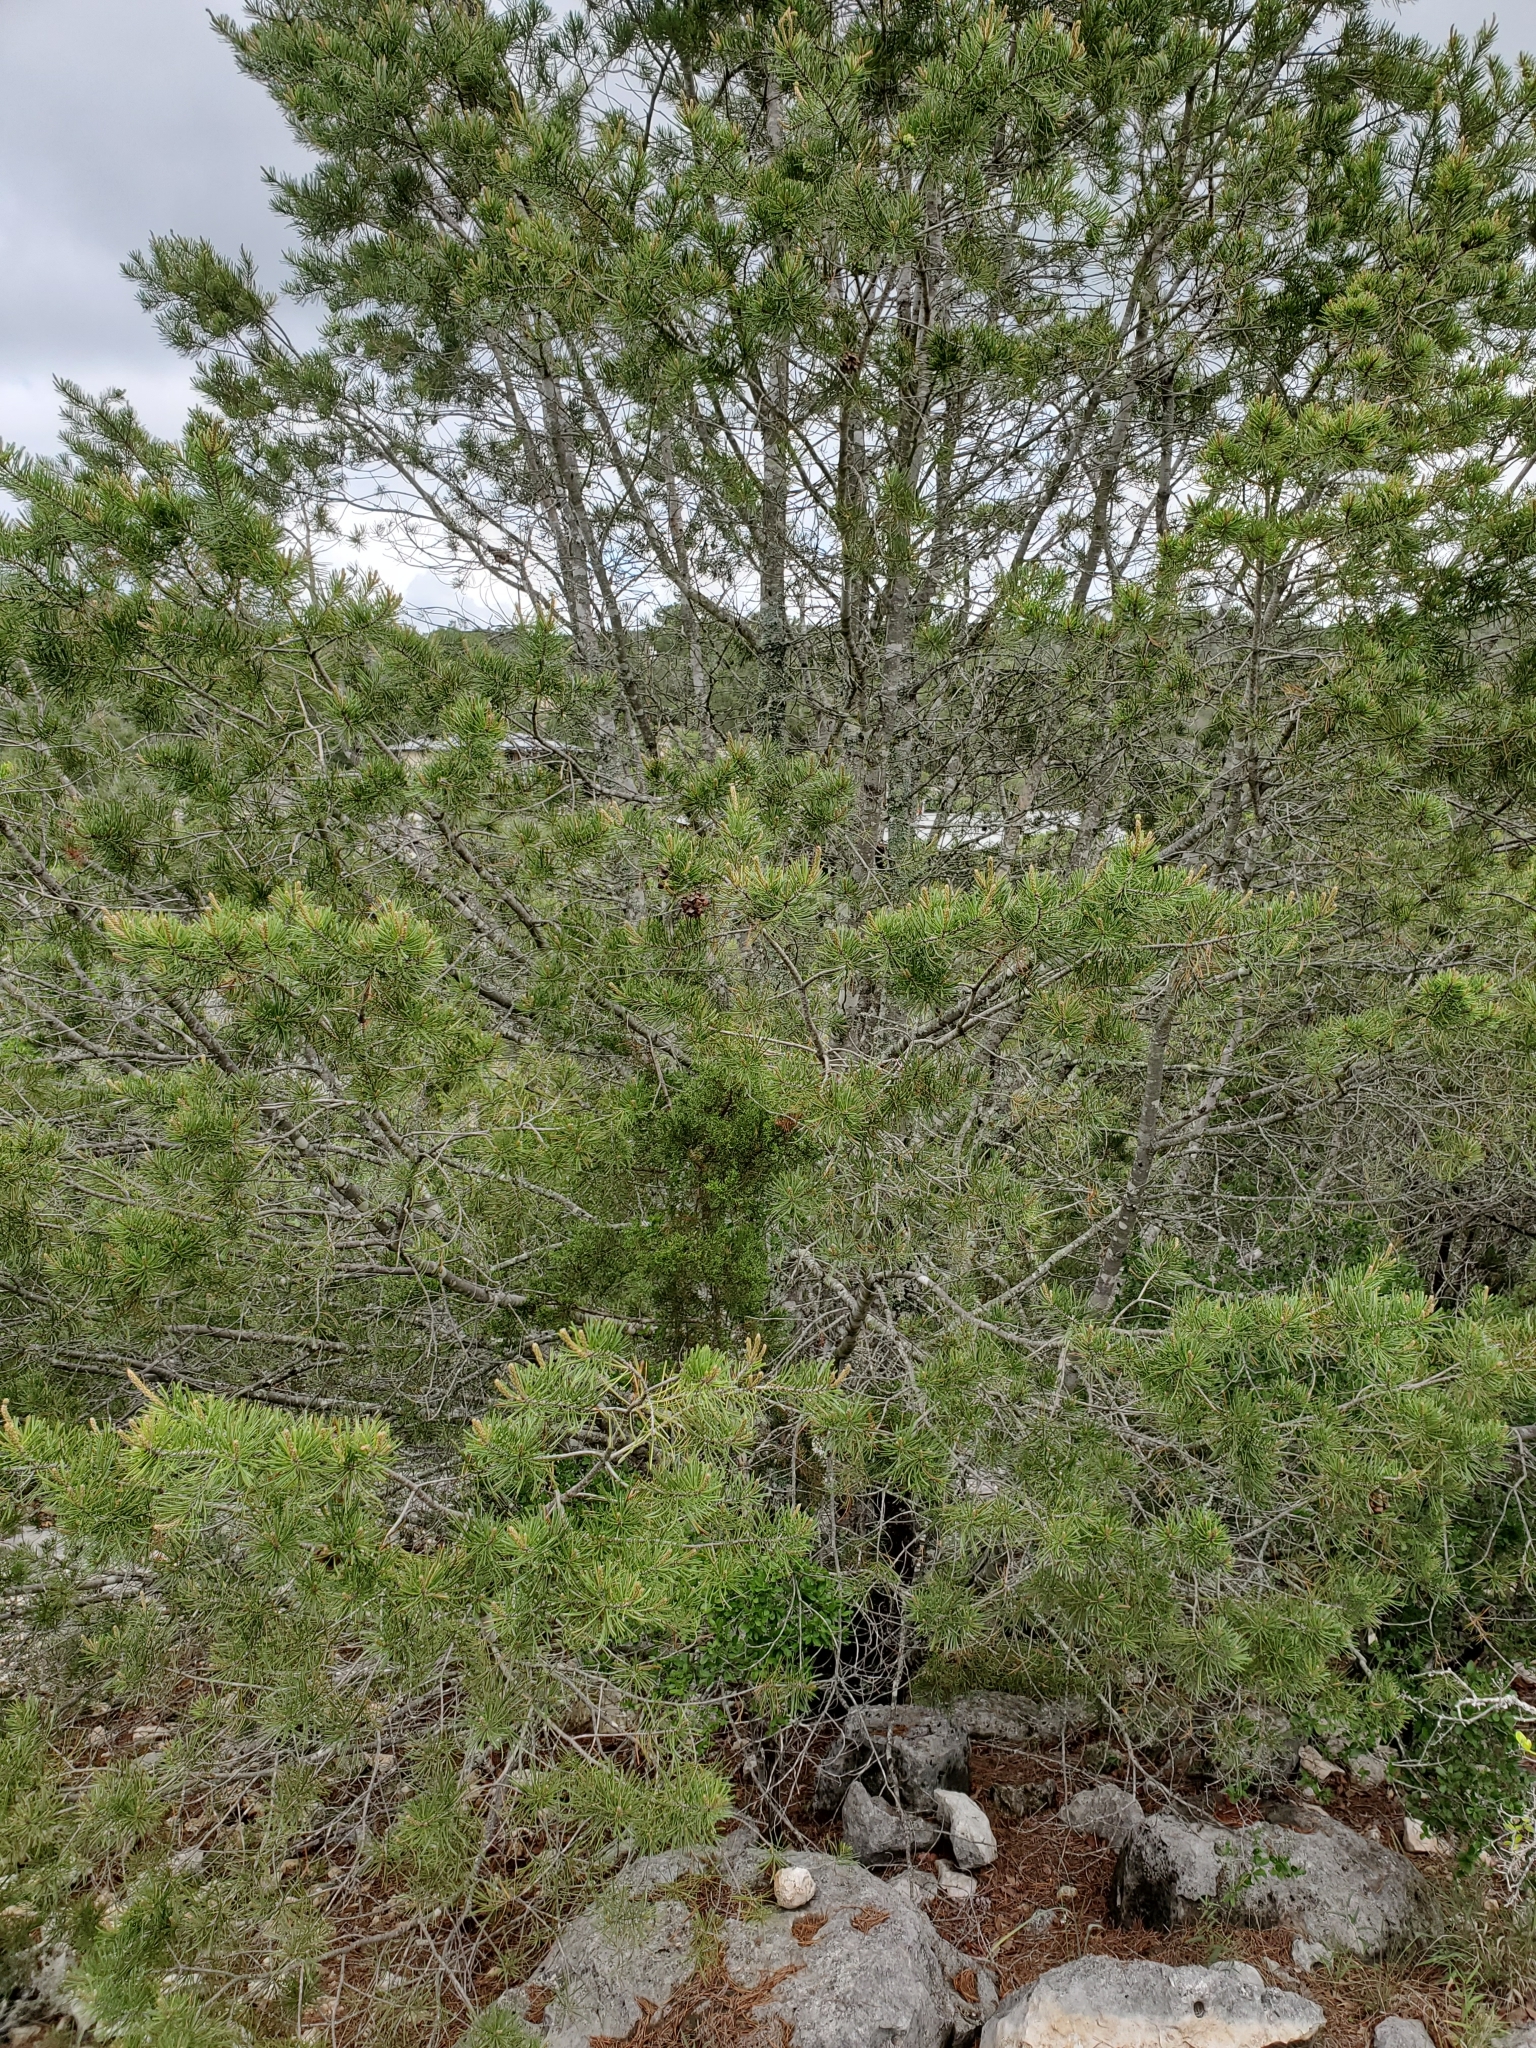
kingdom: Plantae
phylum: Tracheophyta
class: Pinopsida
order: Pinales
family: Pinaceae
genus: Pinus
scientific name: Pinus remota
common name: Nut pine
